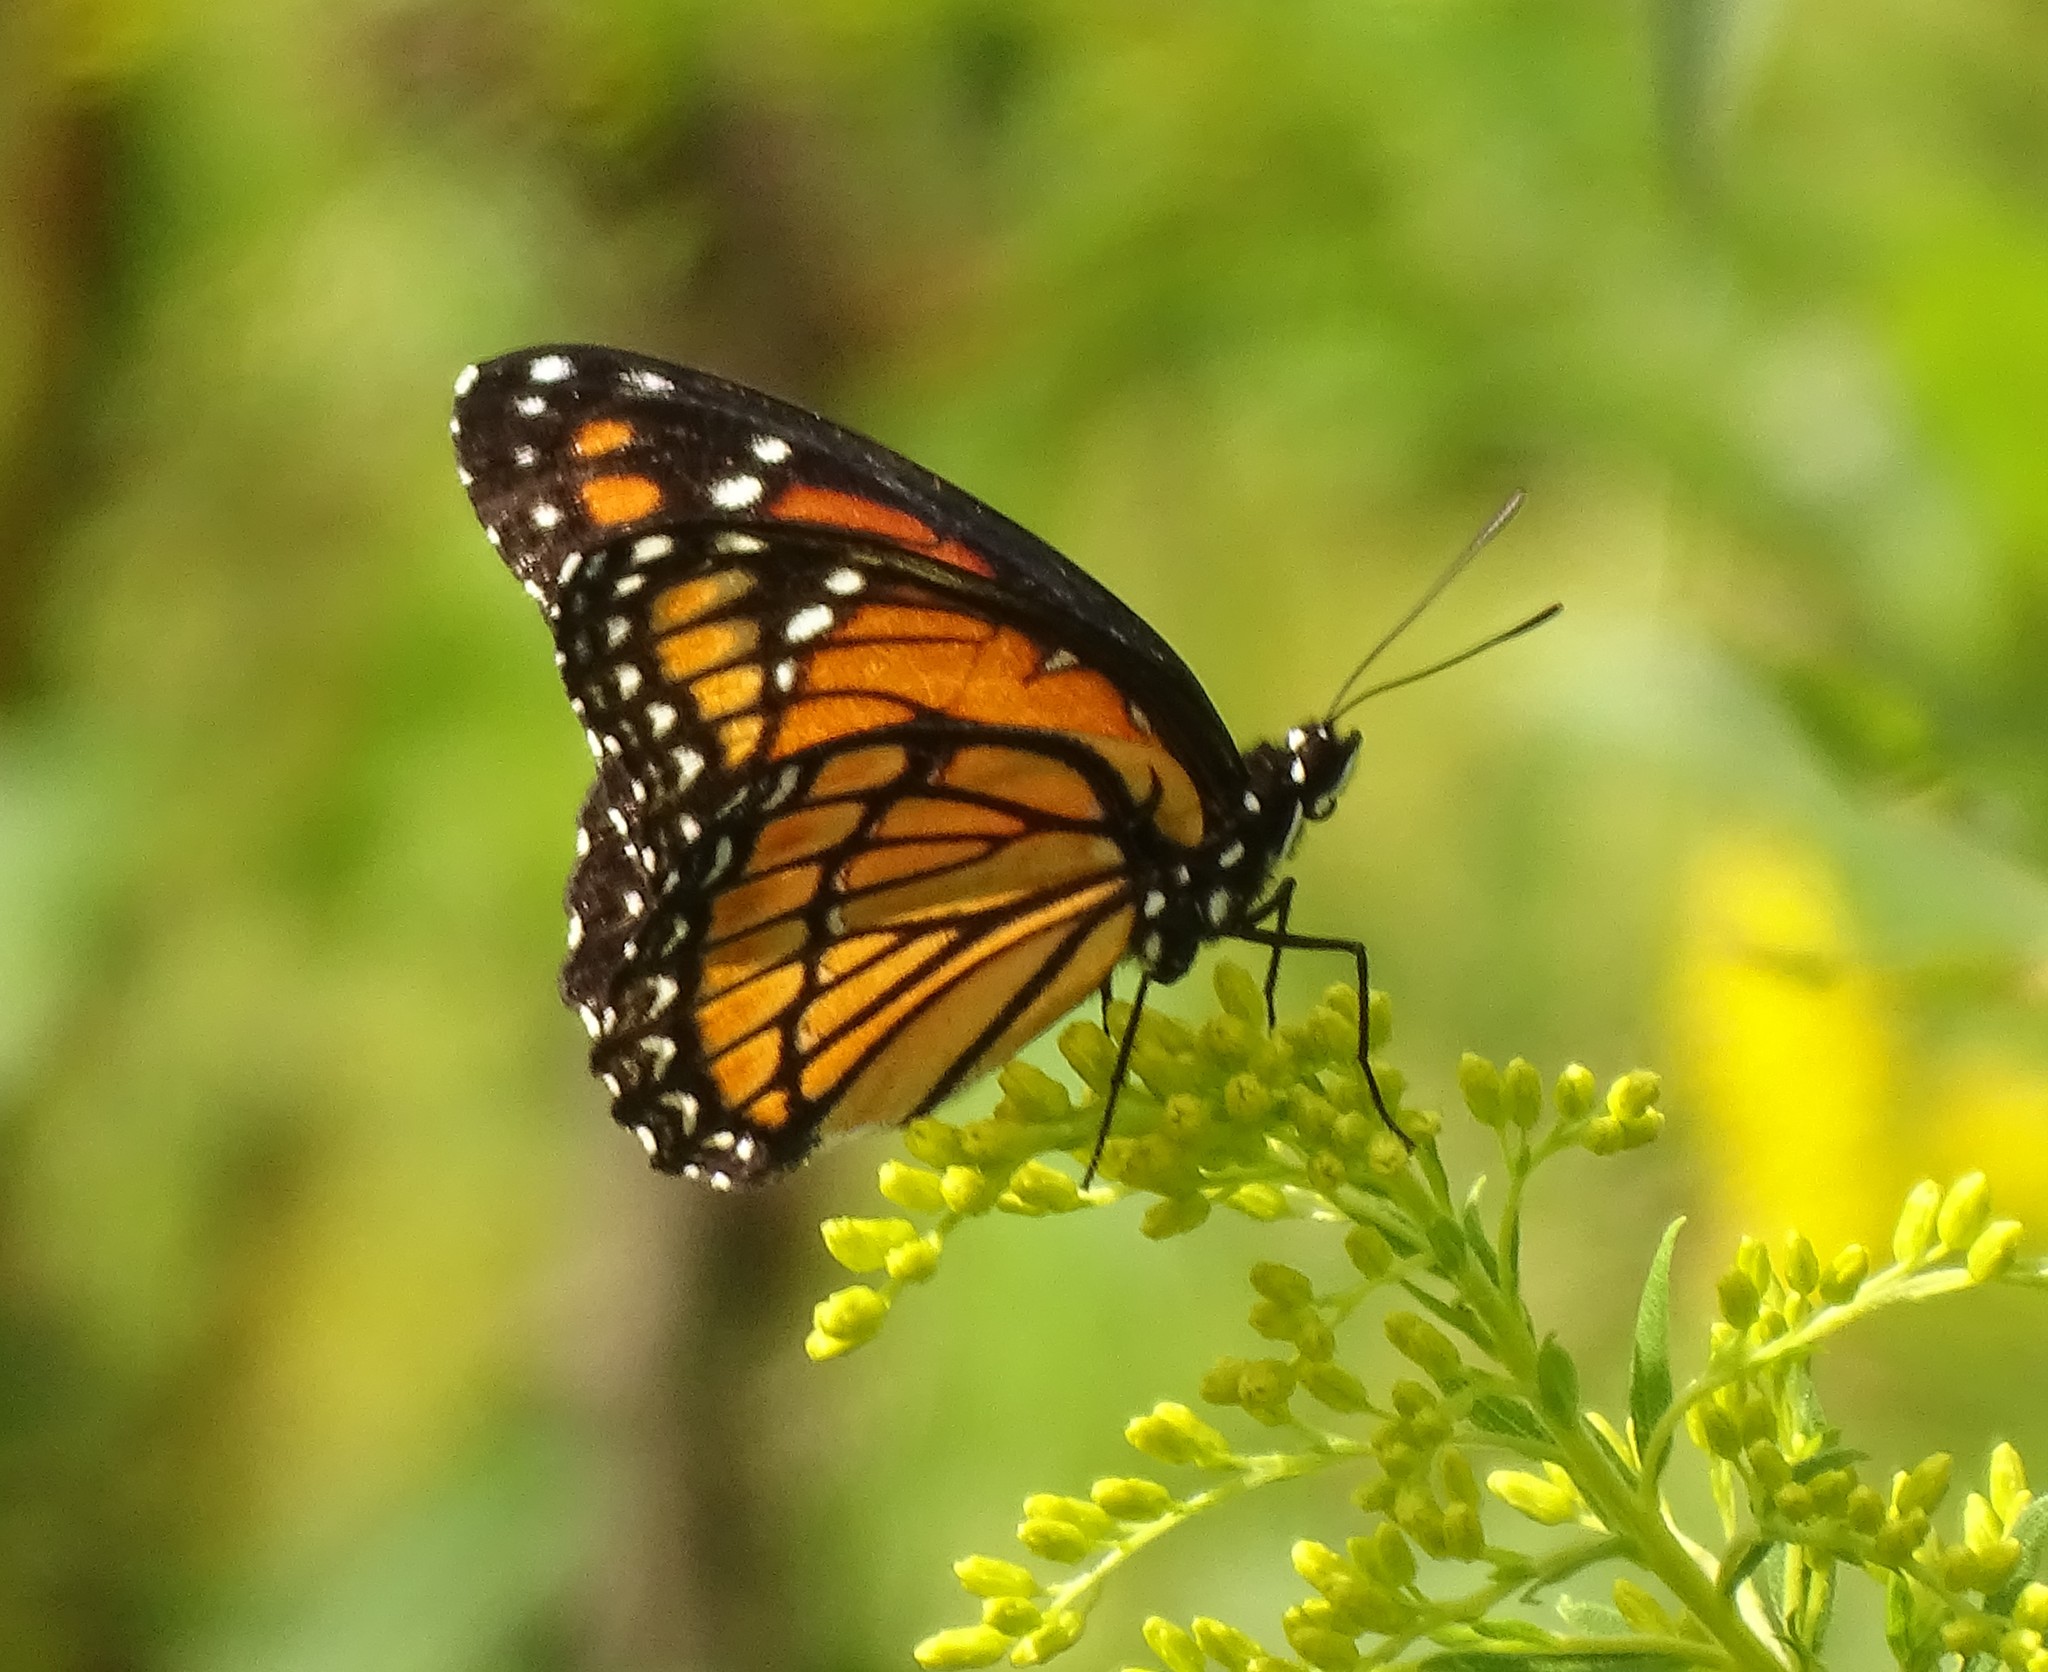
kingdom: Animalia
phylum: Arthropoda
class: Insecta
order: Lepidoptera
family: Nymphalidae
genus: Limenitis
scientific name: Limenitis archippus
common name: Viceroy
